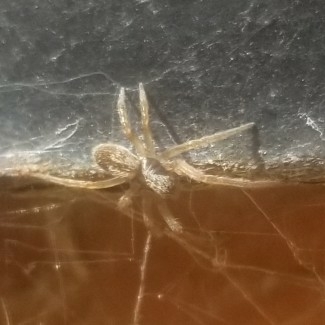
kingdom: Animalia
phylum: Arthropoda
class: Arachnida
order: Araneae
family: Desidae
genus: Badumna
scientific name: Badumna longinqua
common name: Gray house spider
